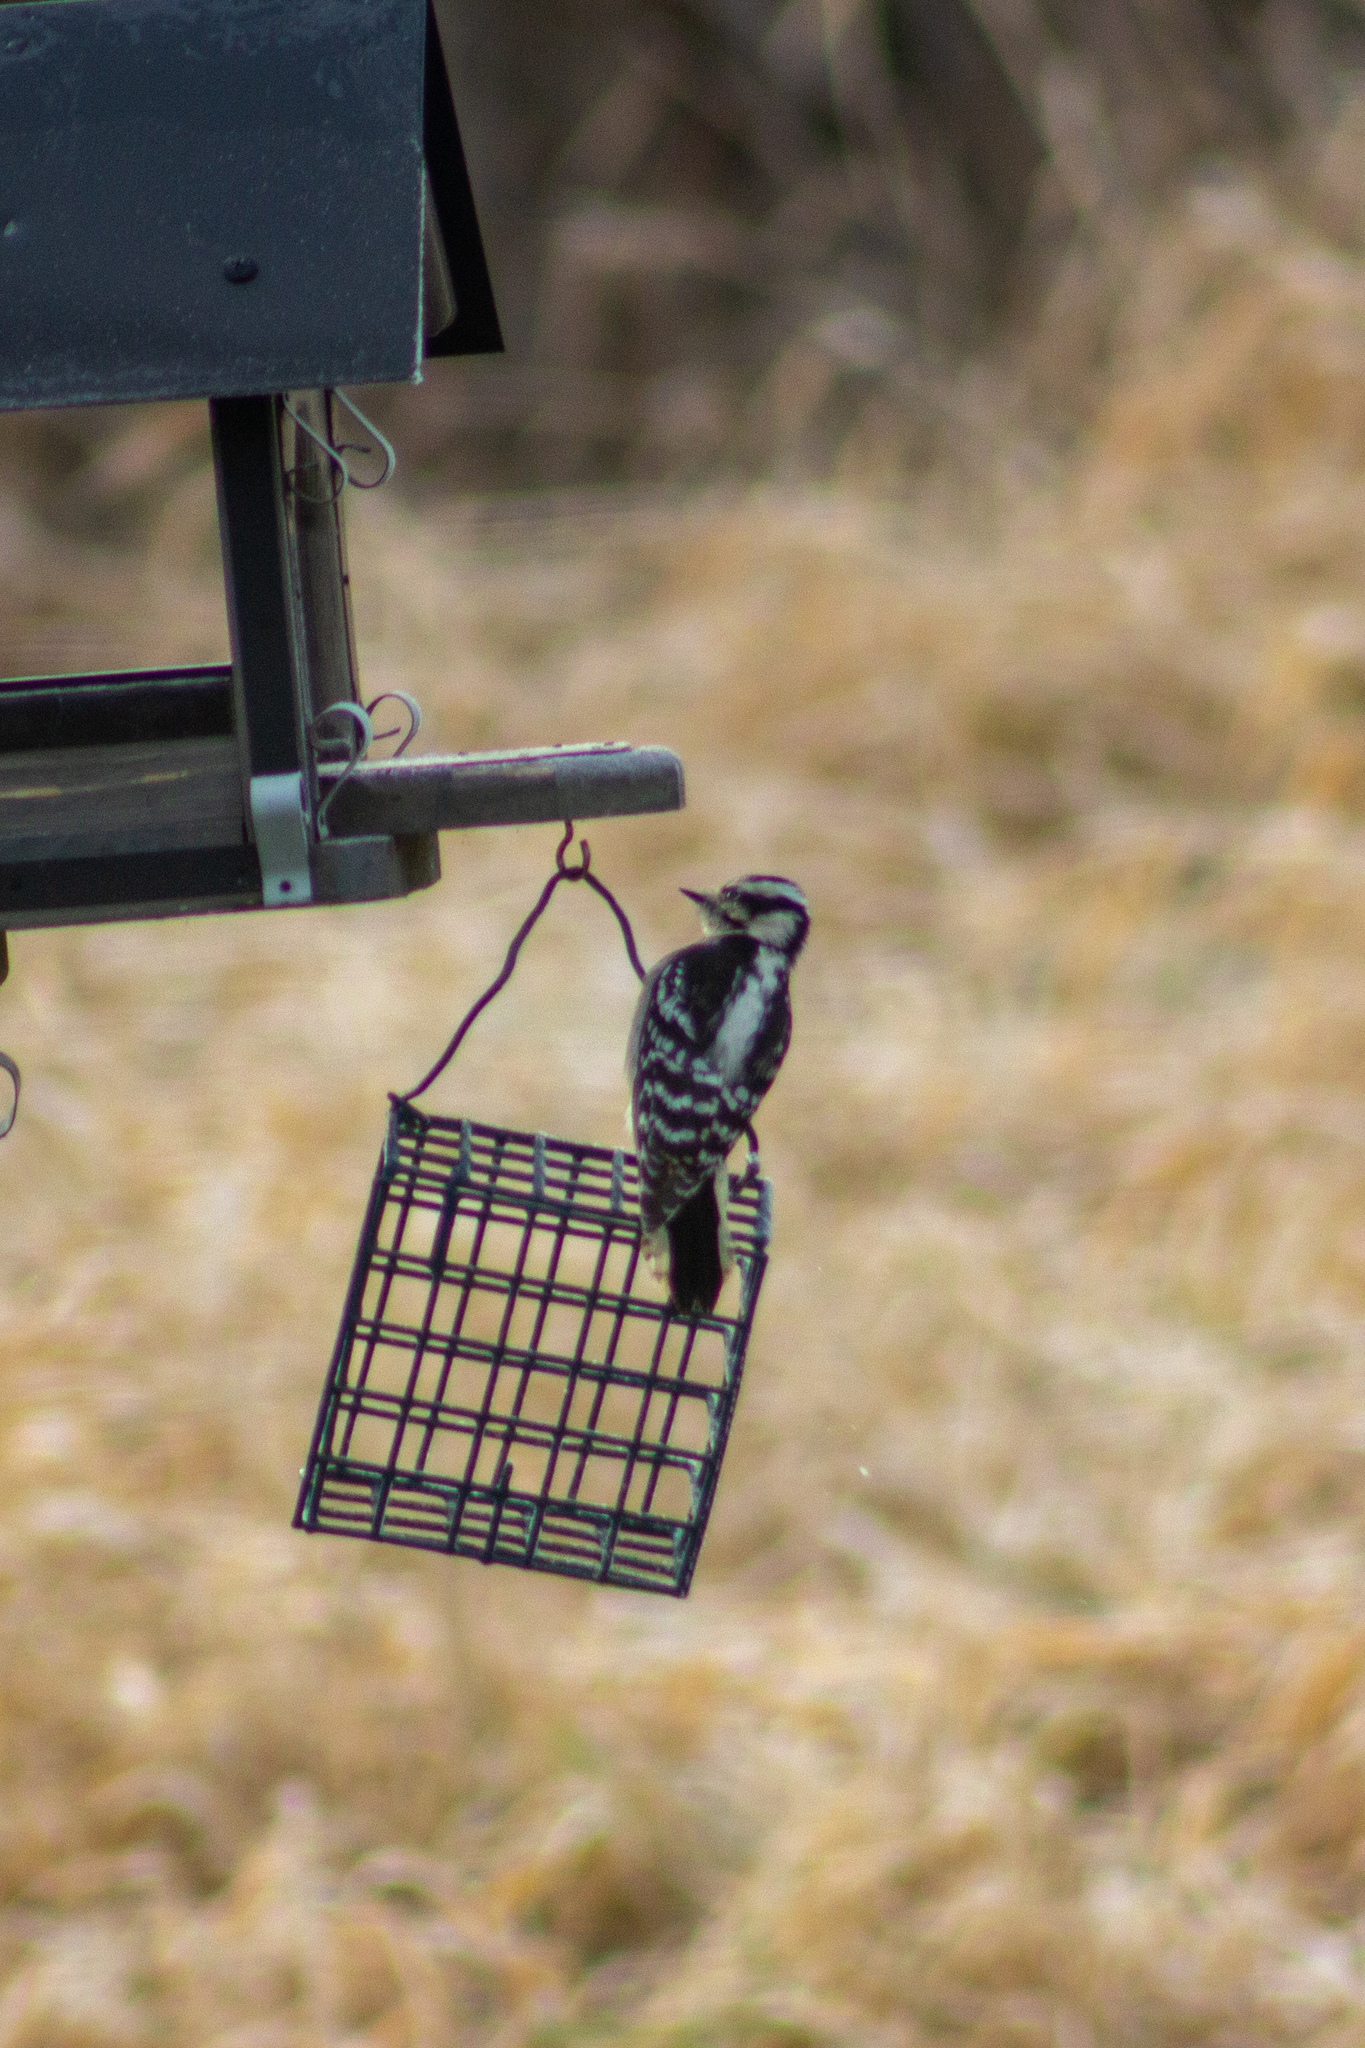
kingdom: Animalia
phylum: Chordata
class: Aves
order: Piciformes
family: Picidae
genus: Dryobates
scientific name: Dryobates pubescens
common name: Downy woodpecker
